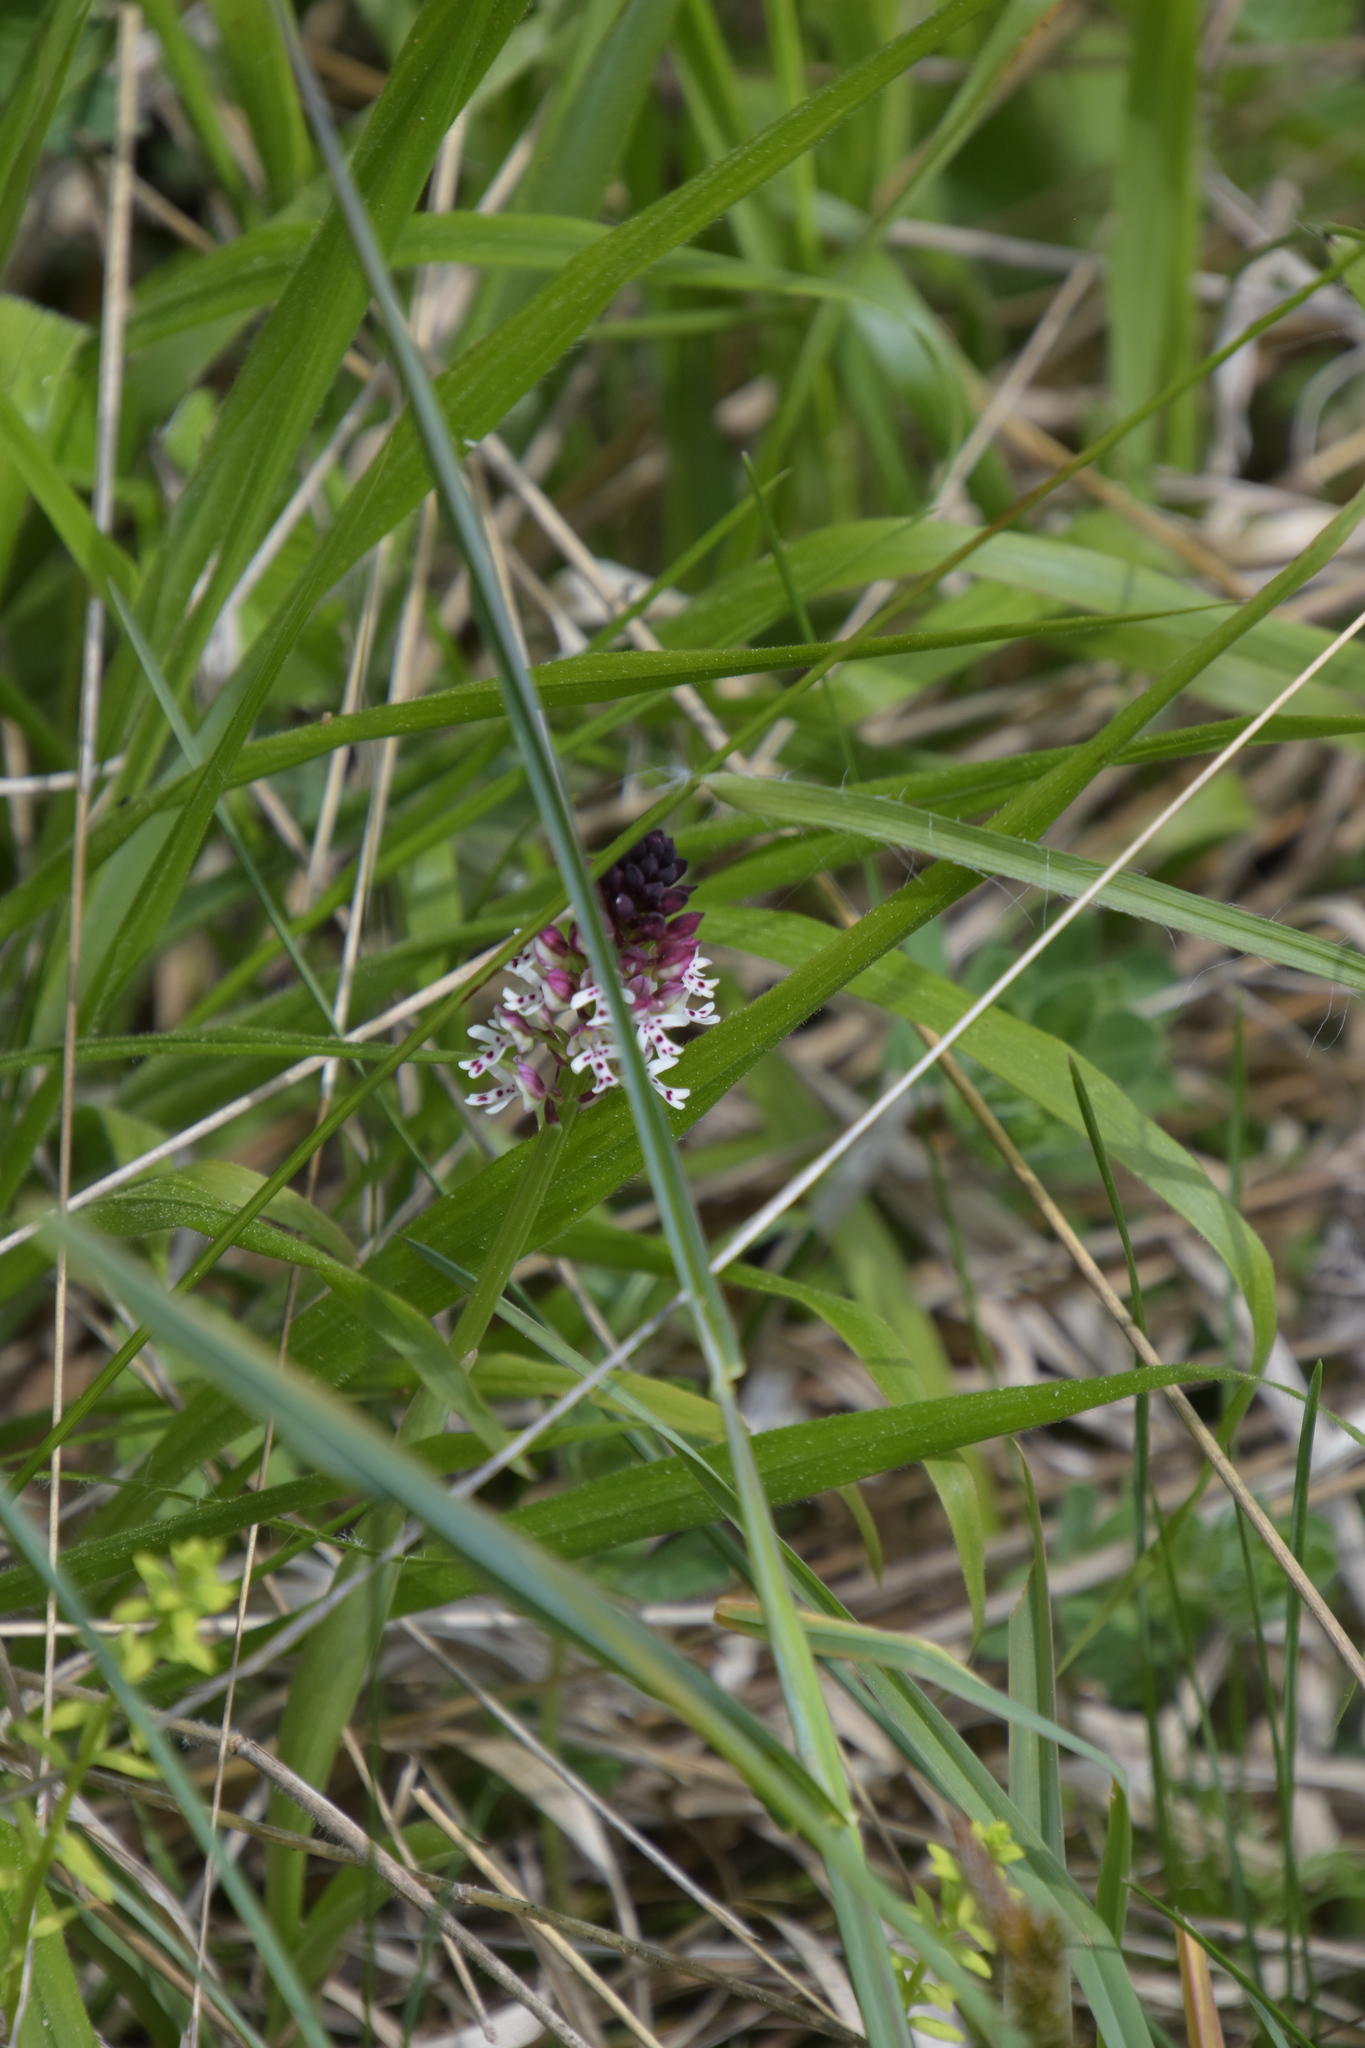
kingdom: Plantae
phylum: Tracheophyta
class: Liliopsida
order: Asparagales
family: Orchidaceae
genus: Neotinea
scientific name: Neotinea ustulata
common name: Burnt orchid
